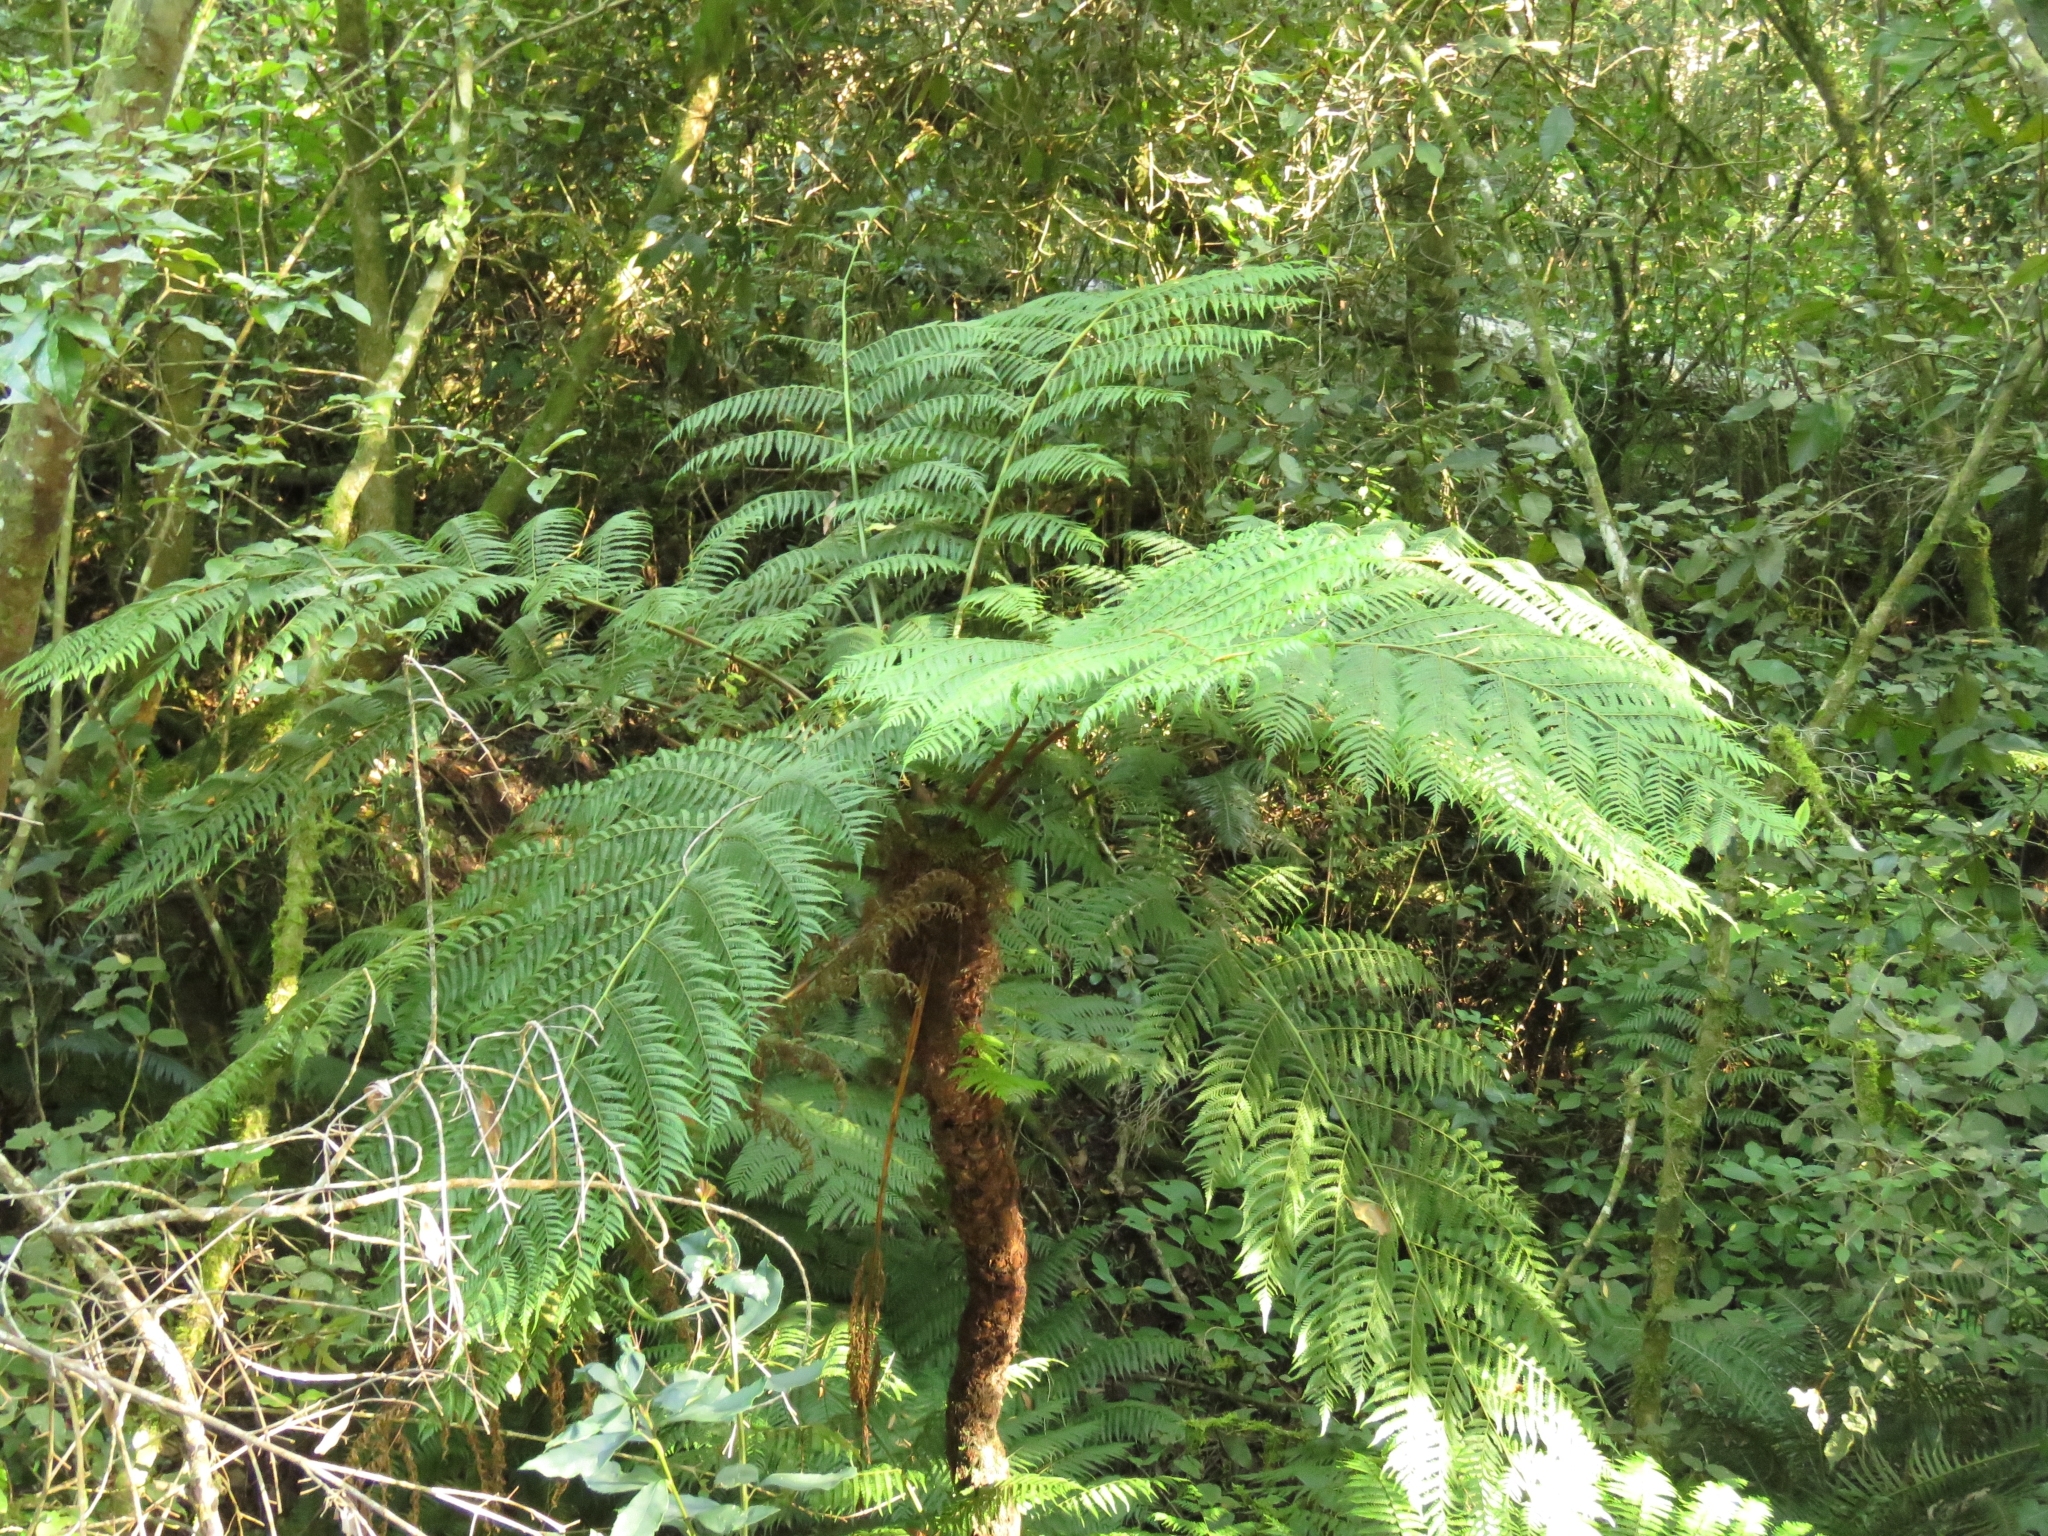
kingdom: Plantae
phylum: Tracheophyta
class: Polypodiopsida
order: Cyatheales
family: Cyatheaceae
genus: Gymnosphaera
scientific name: Gymnosphaera capensis
